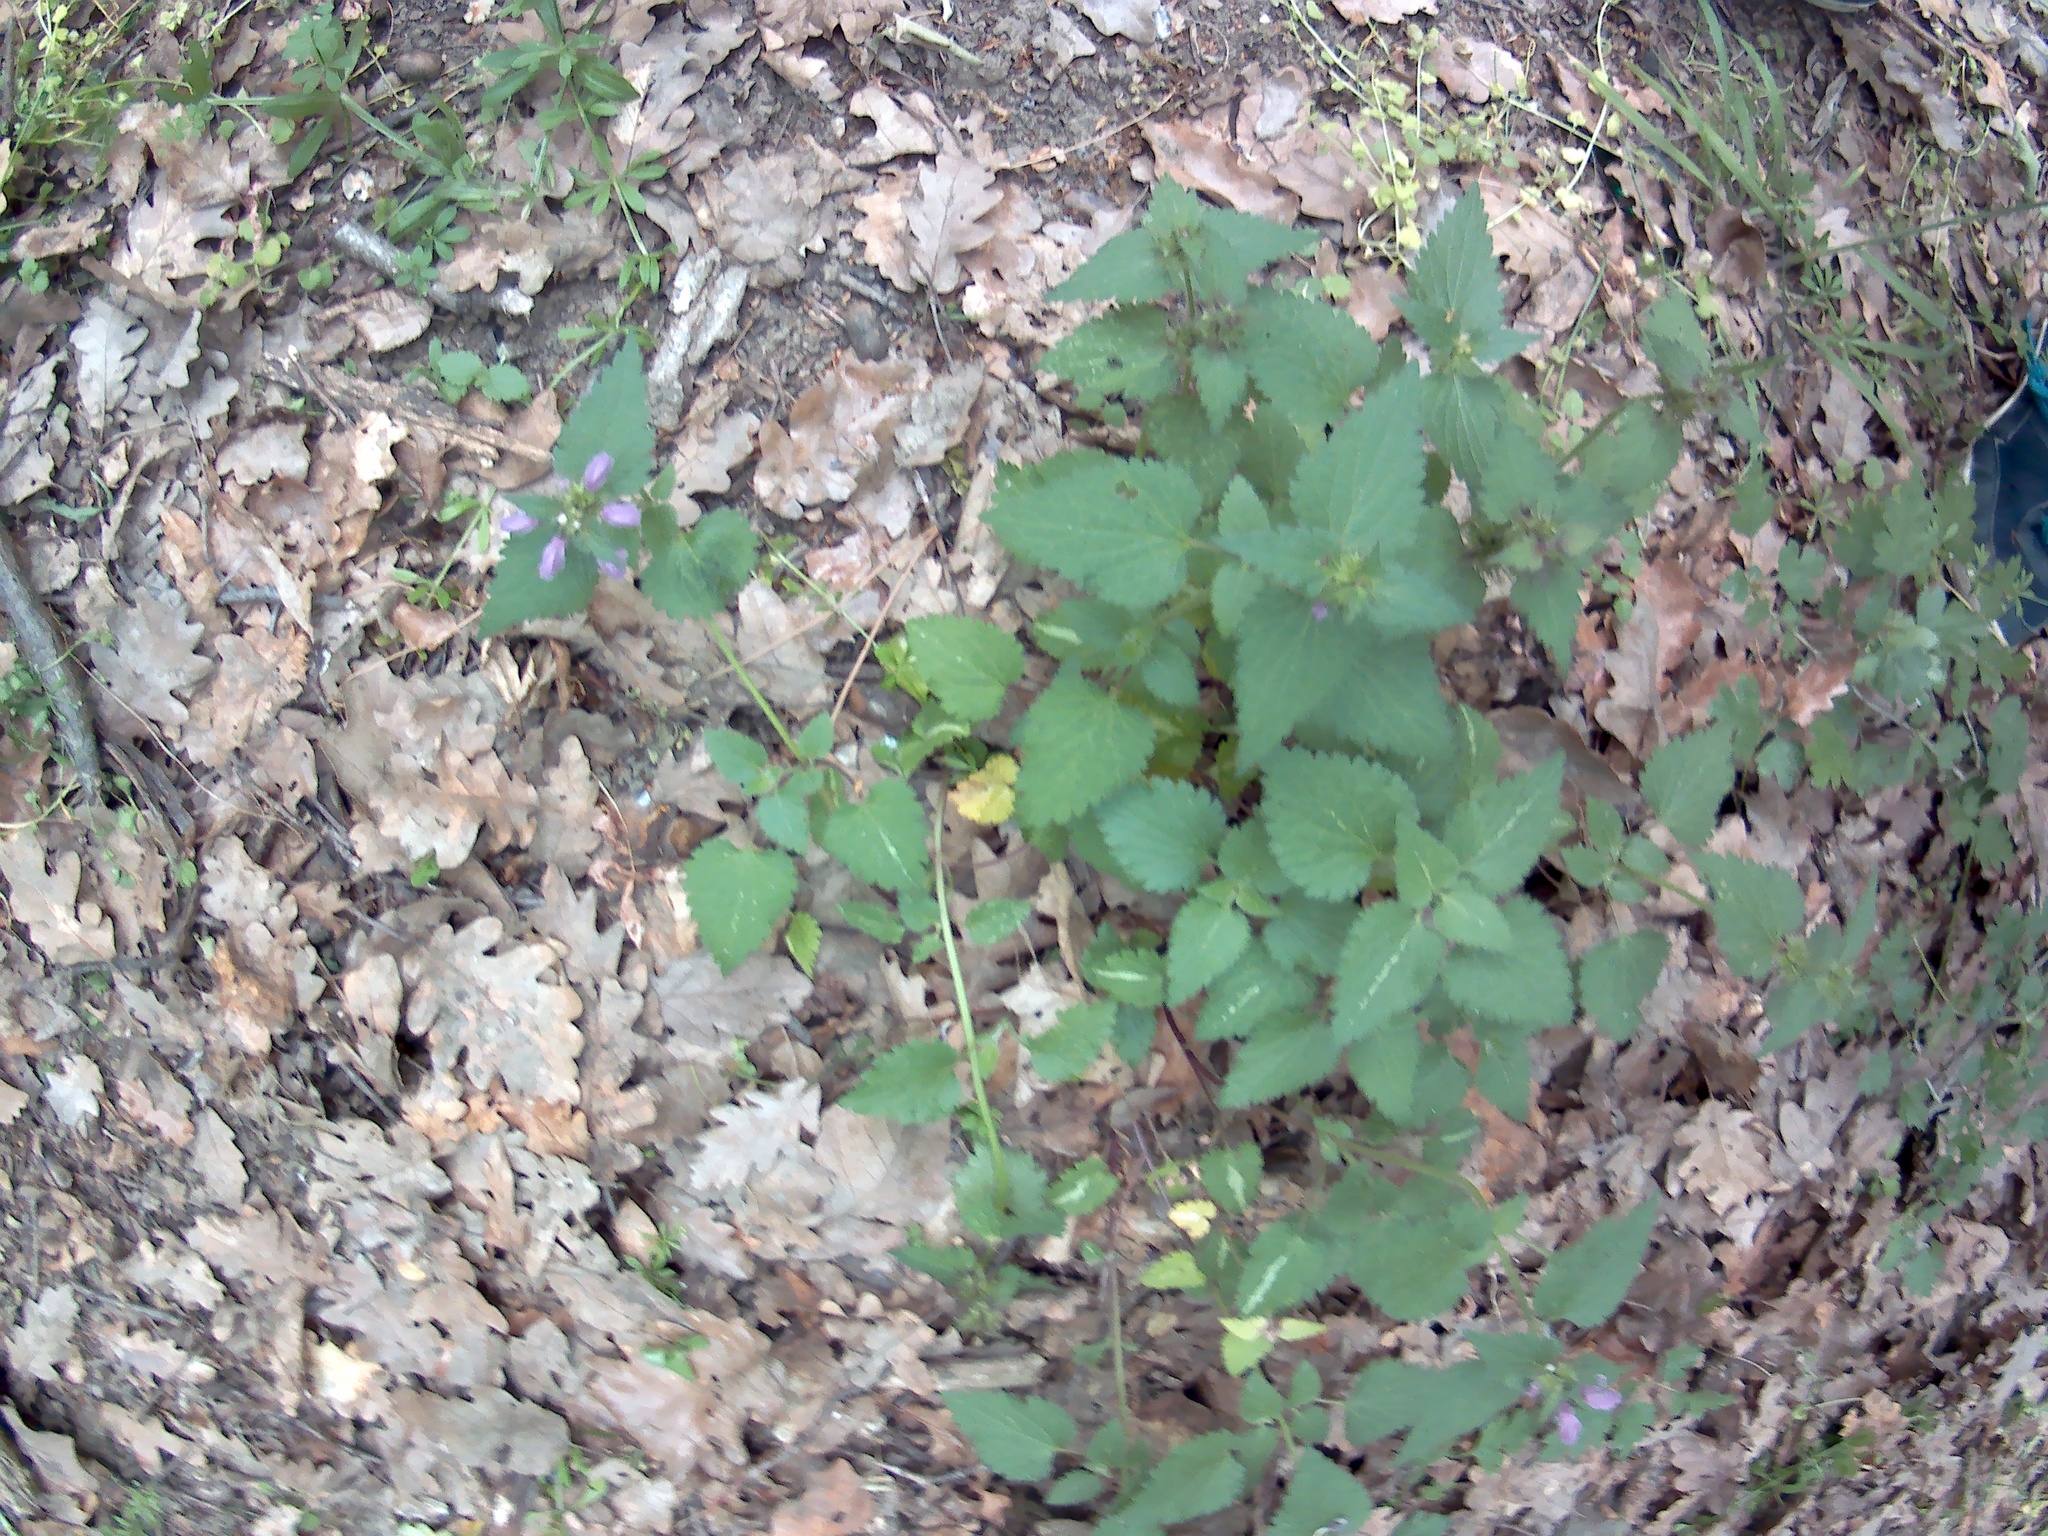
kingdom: Plantae
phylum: Tracheophyta
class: Magnoliopsida
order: Lamiales
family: Lamiaceae
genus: Lamium
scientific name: Lamium maculatum
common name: Spotted dead-nettle
